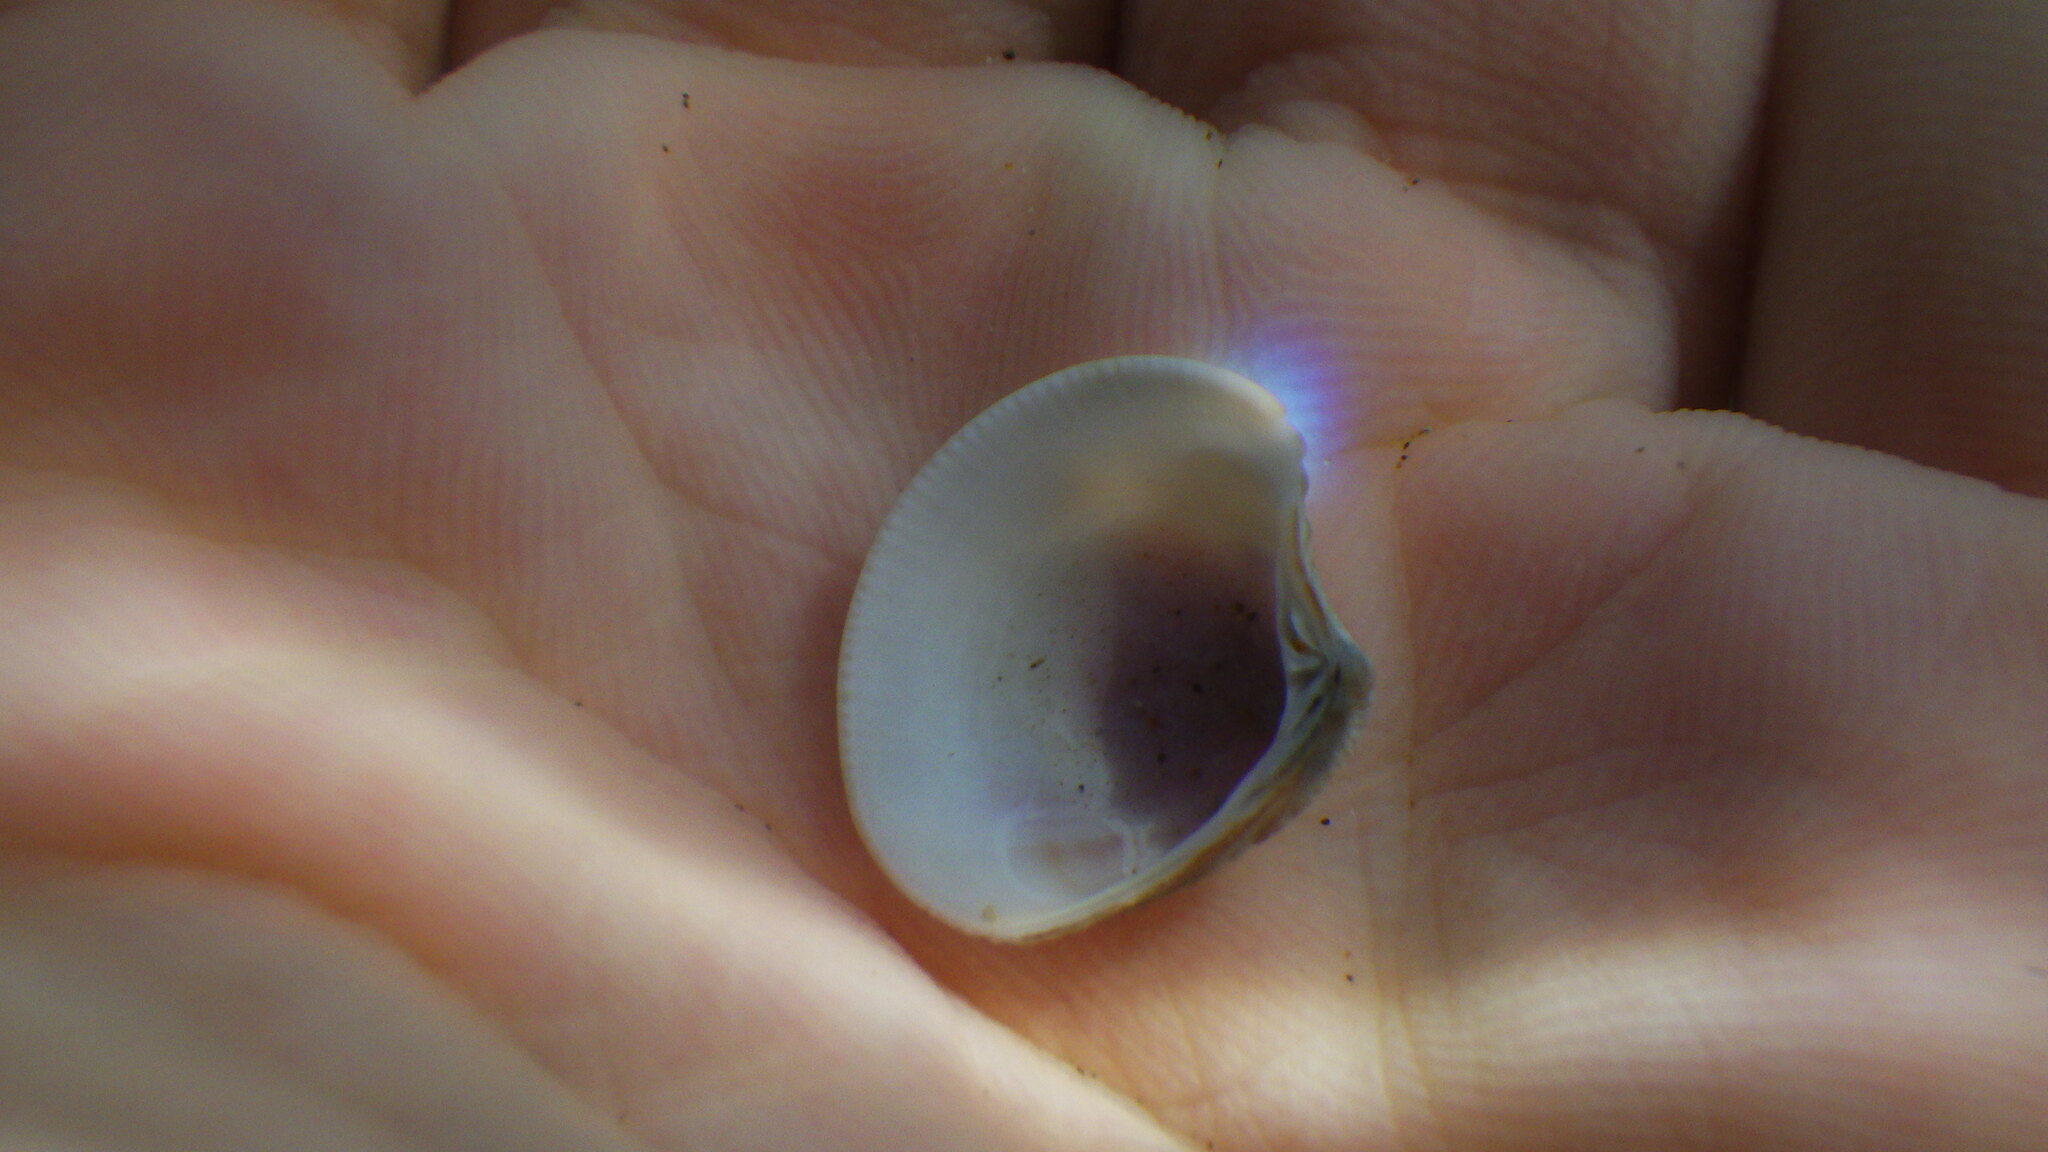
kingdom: Animalia
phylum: Mollusca
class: Bivalvia
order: Venerida
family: Veneridae
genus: Chamelea
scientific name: Chamelea gallina
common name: Chicken venus
